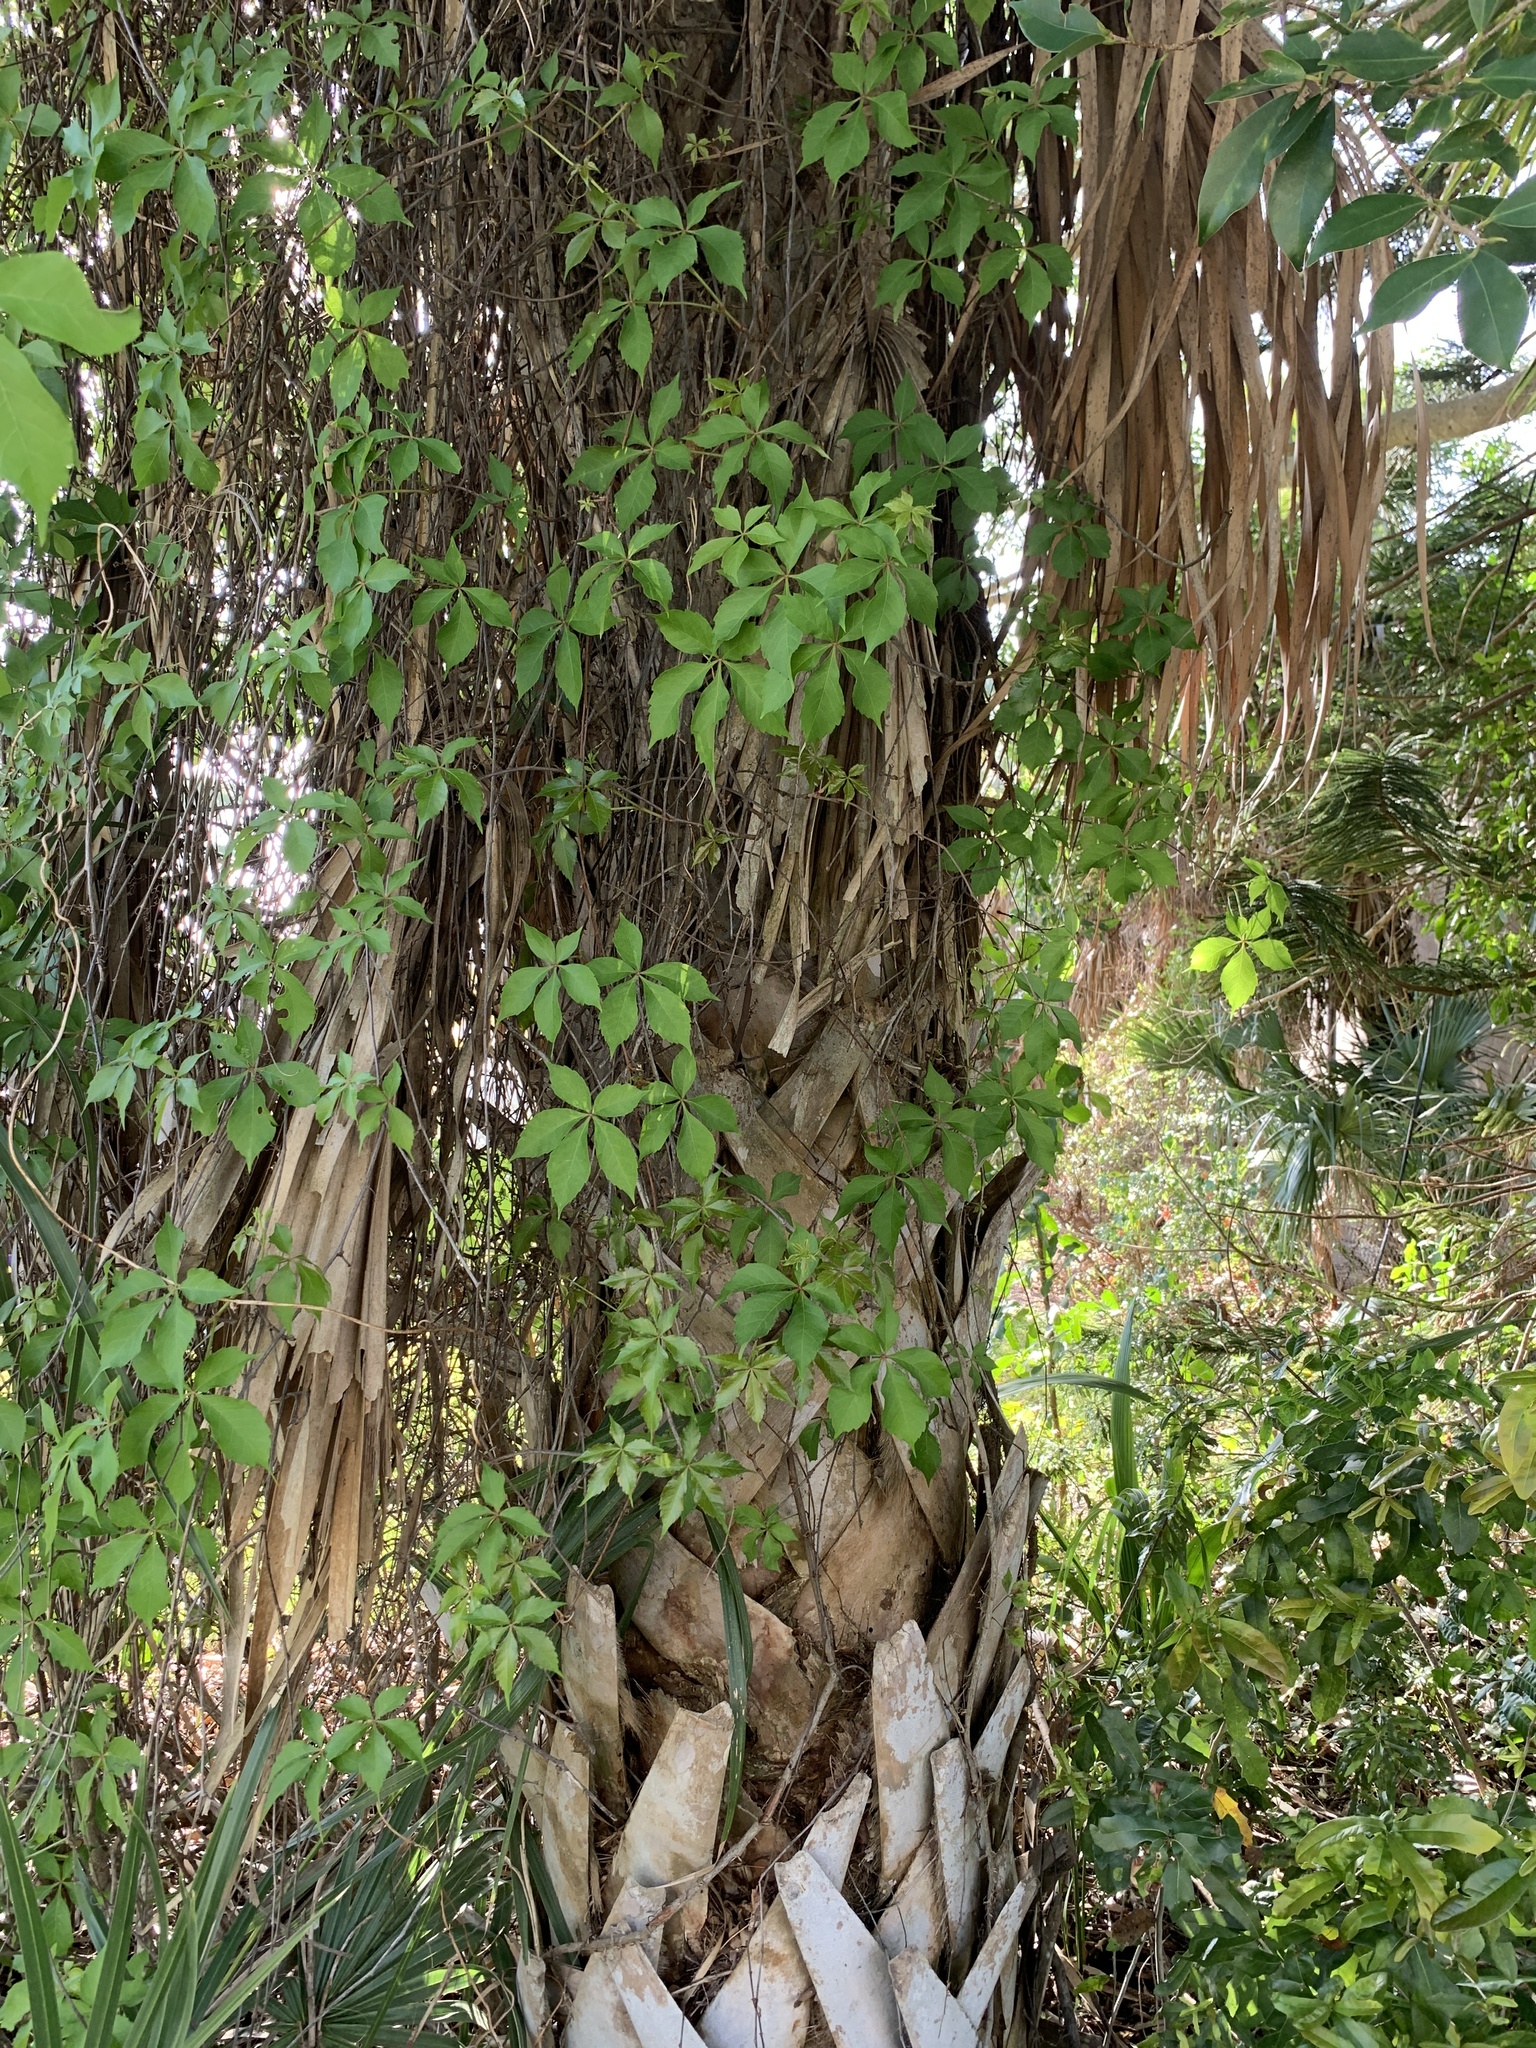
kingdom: Plantae
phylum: Tracheophyta
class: Magnoliopsida
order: Vitales
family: Vitaceae
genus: Parthenocissus
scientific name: Parthenocissus quinquefolia
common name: Virginia-creeper
